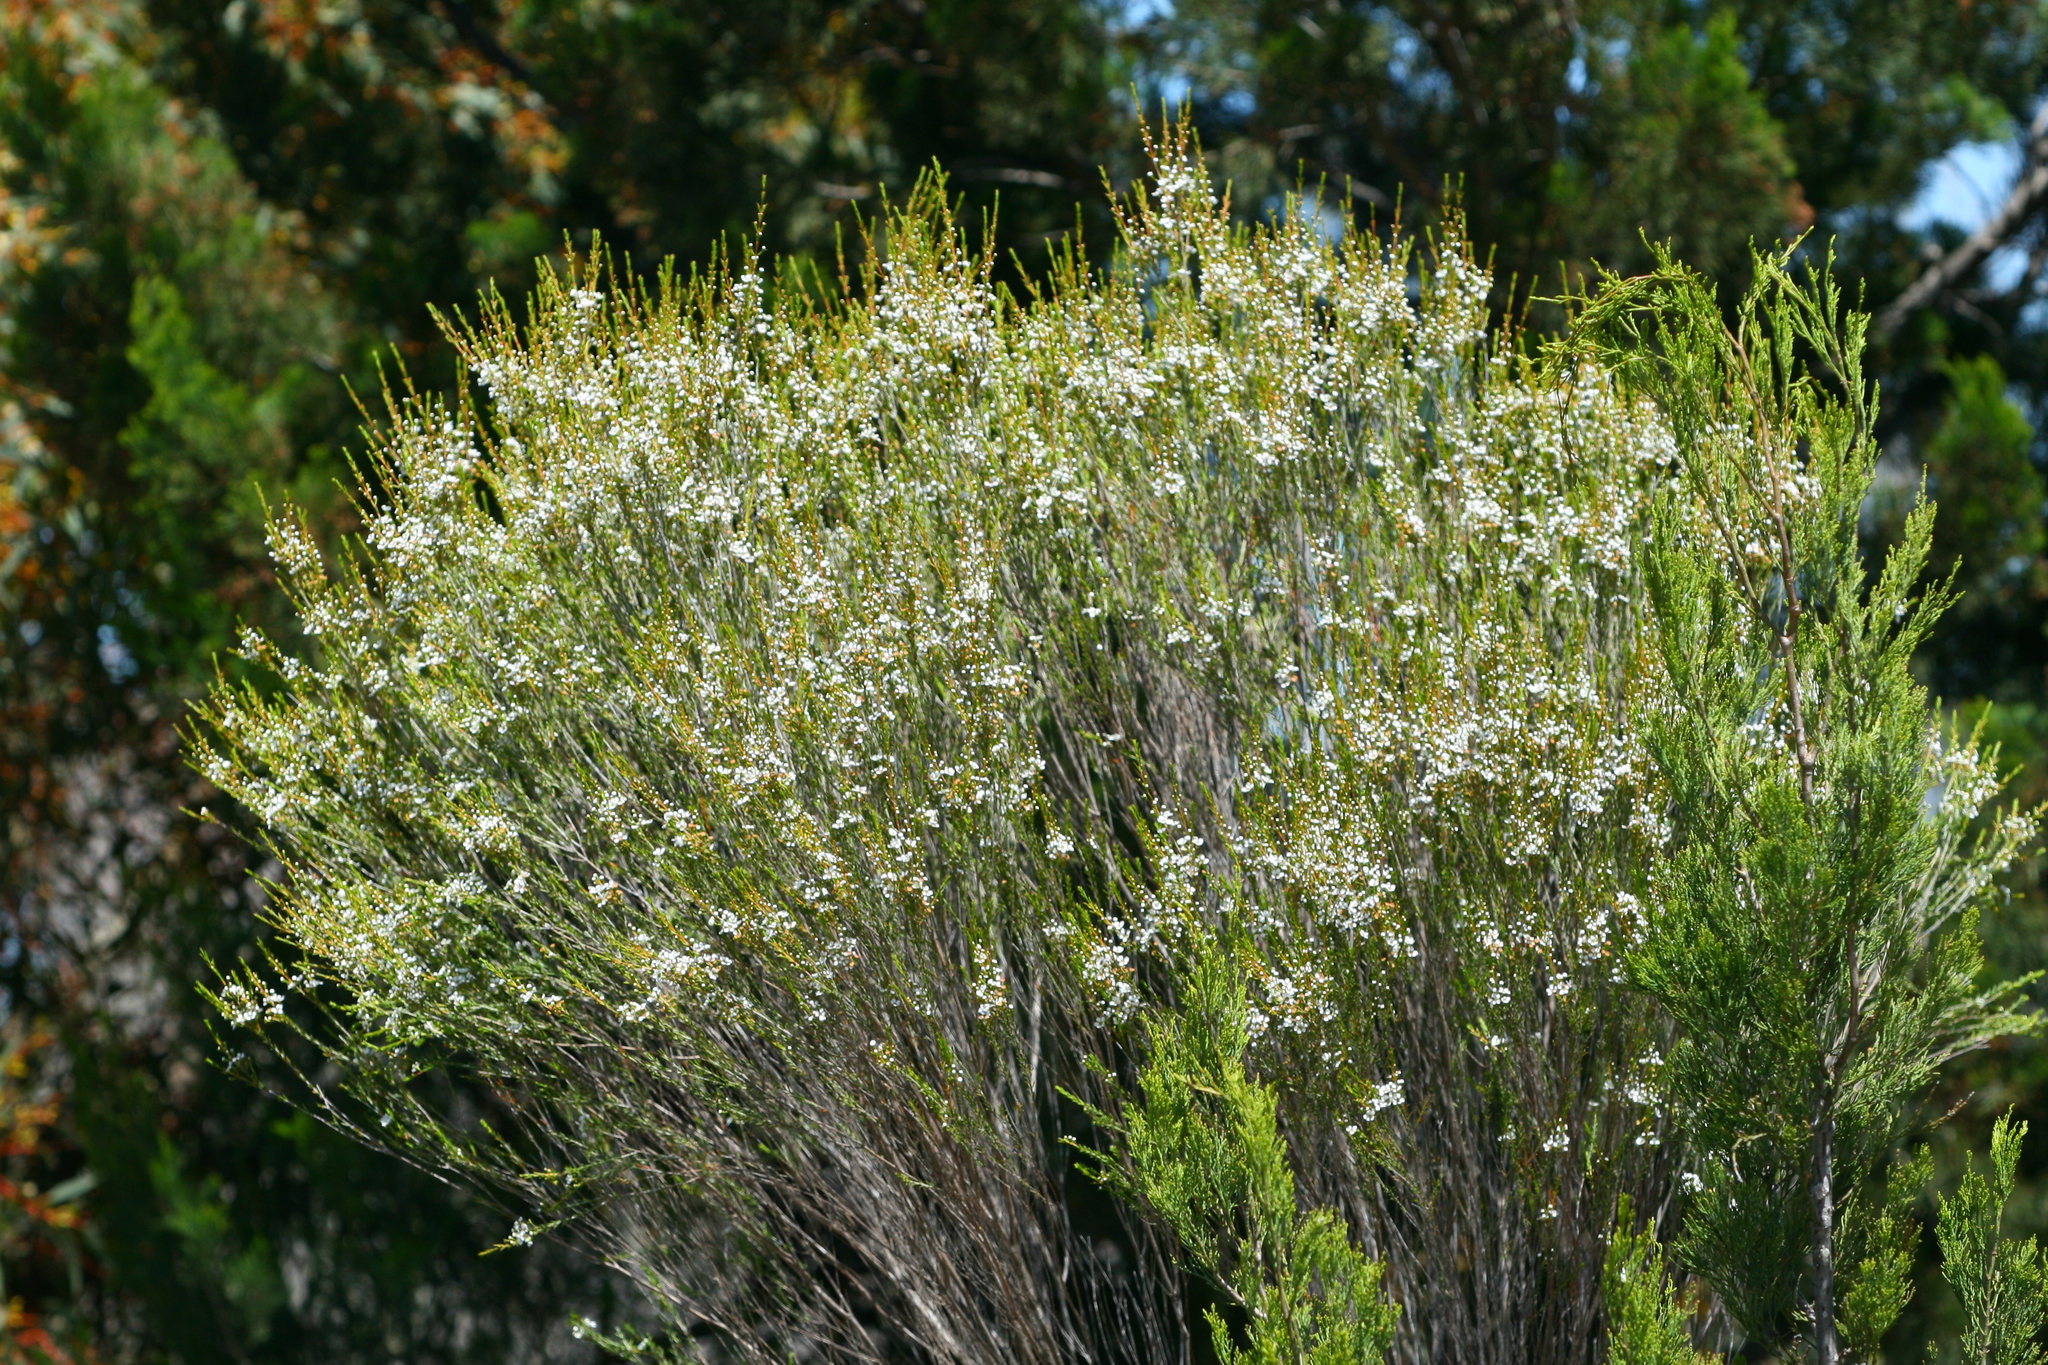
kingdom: Plantae
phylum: Tracheophyta
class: Magnoliopsida
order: Myrtales
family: Myrtaceae
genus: Hysterobaeckea
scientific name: Hysterobaeckea behrii
